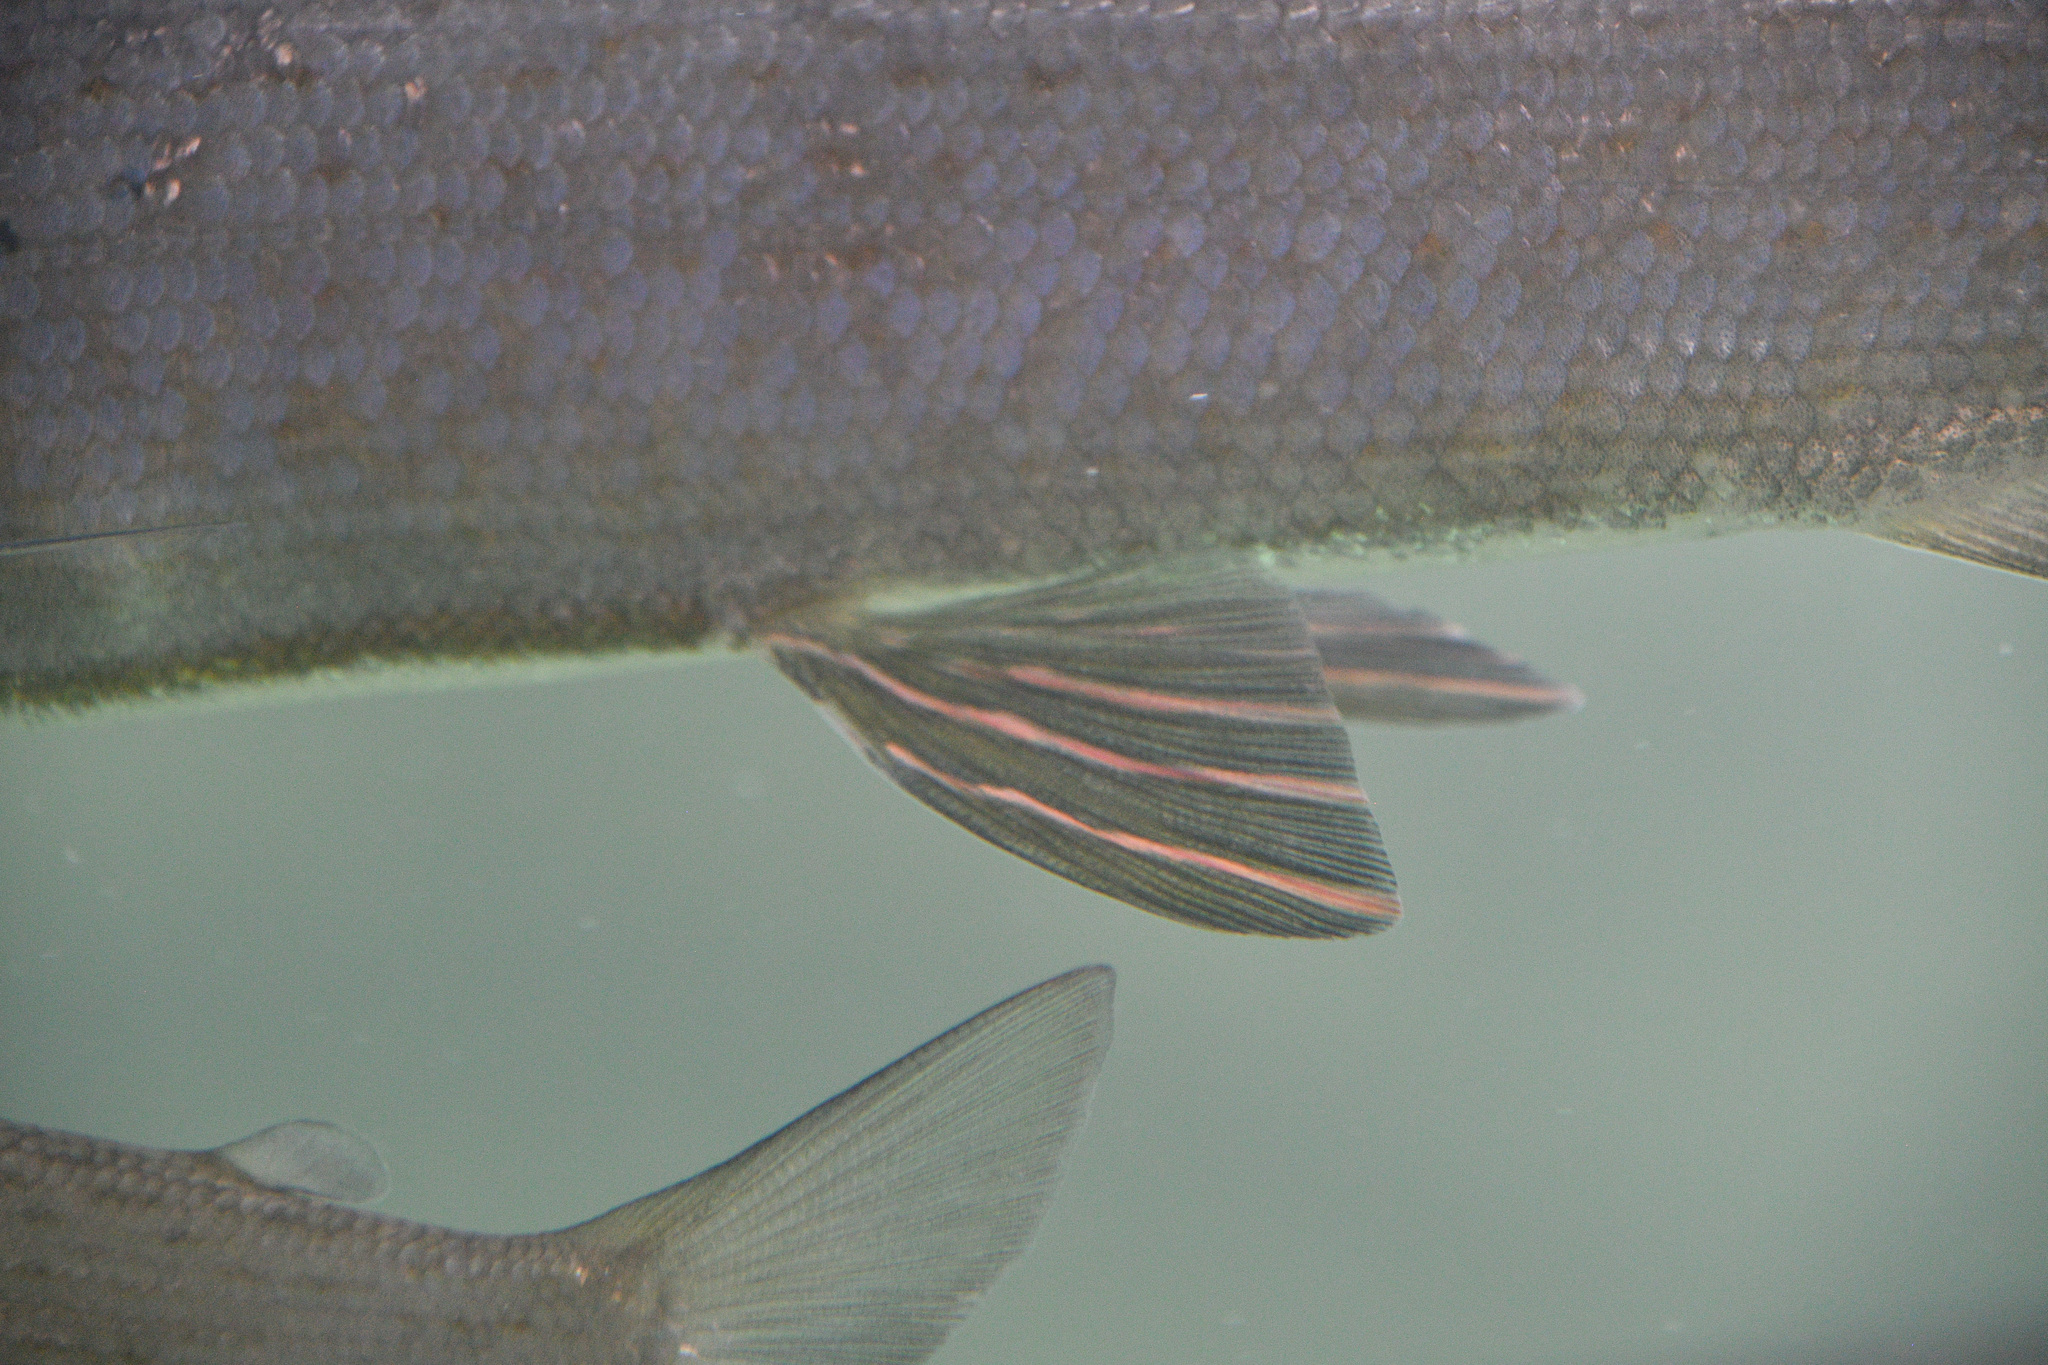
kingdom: Animalia
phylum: Chordata
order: Salmoniformes
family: Salmonidae
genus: Thymallus
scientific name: Thymallus arcticus
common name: Arctic grayling
